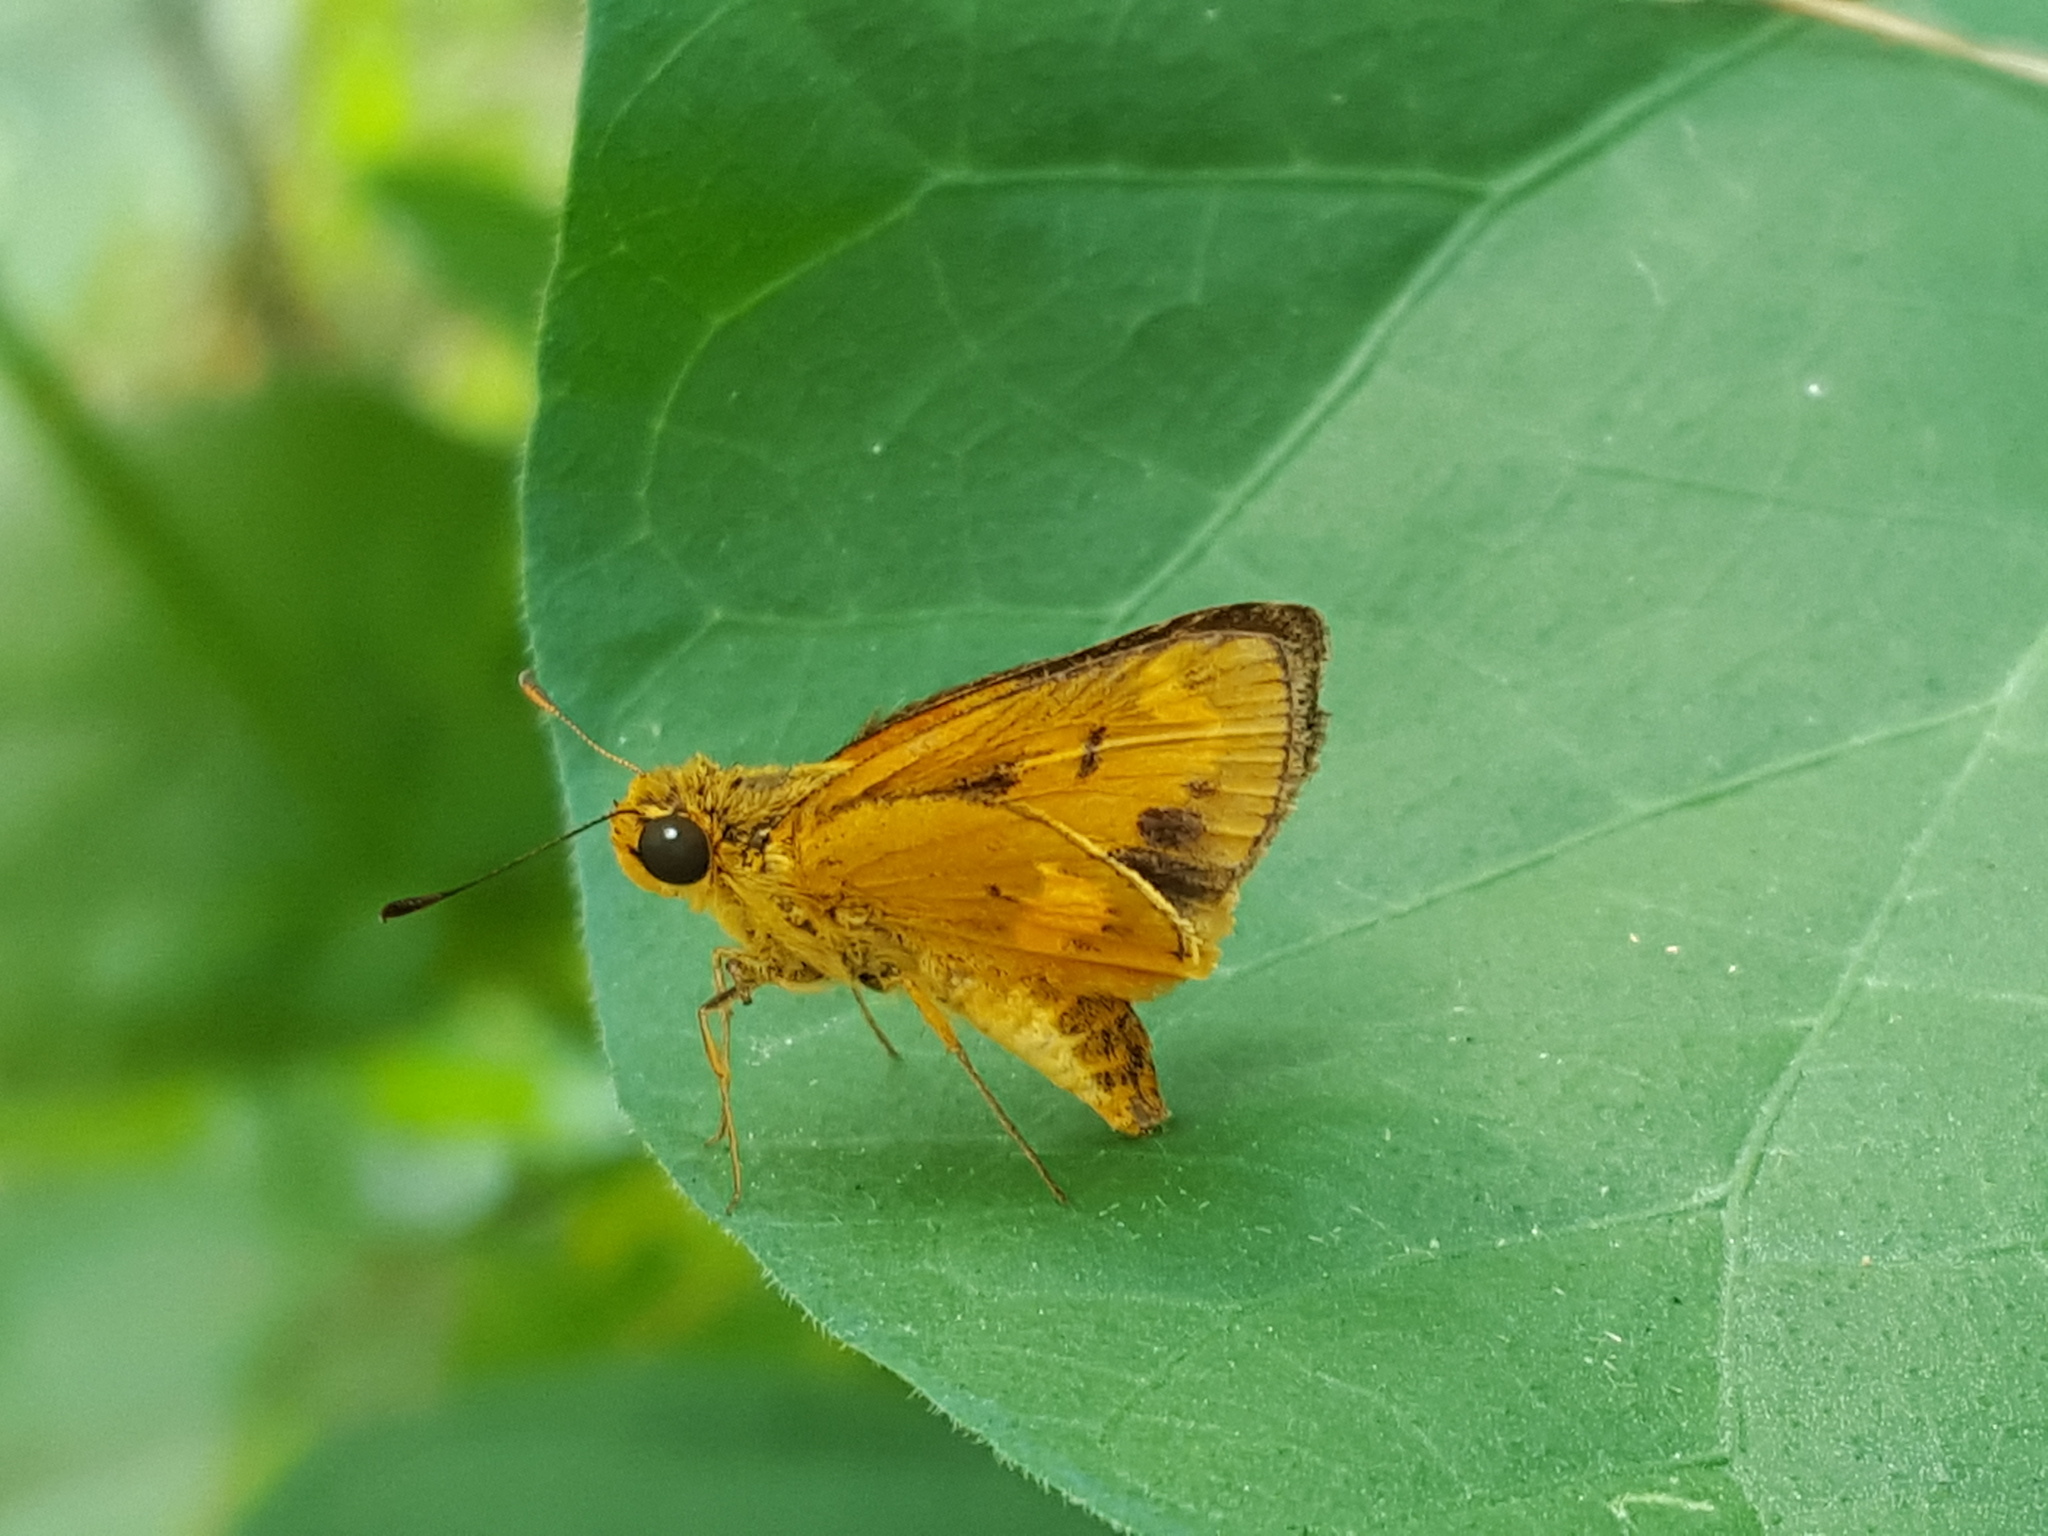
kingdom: Animalia
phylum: Arthropoda
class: Insecta
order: Lepidoptera
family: Hesperiidae
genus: Oriens
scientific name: Oriens gola
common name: Common dartlet
